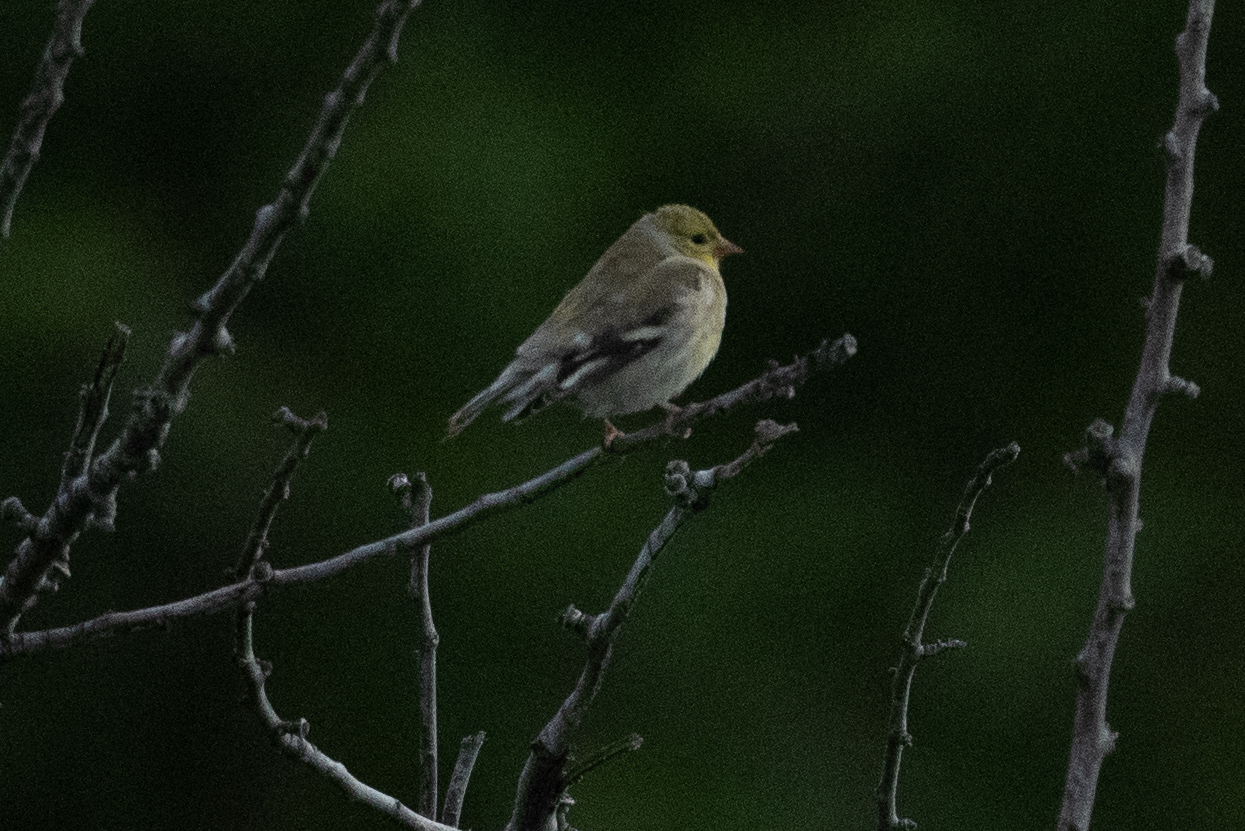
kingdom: Animalia
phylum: Chordata
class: Aves
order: Passeriformes
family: Fringillidae
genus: Spinus
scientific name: Spinus tristis
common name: American goldfinch
